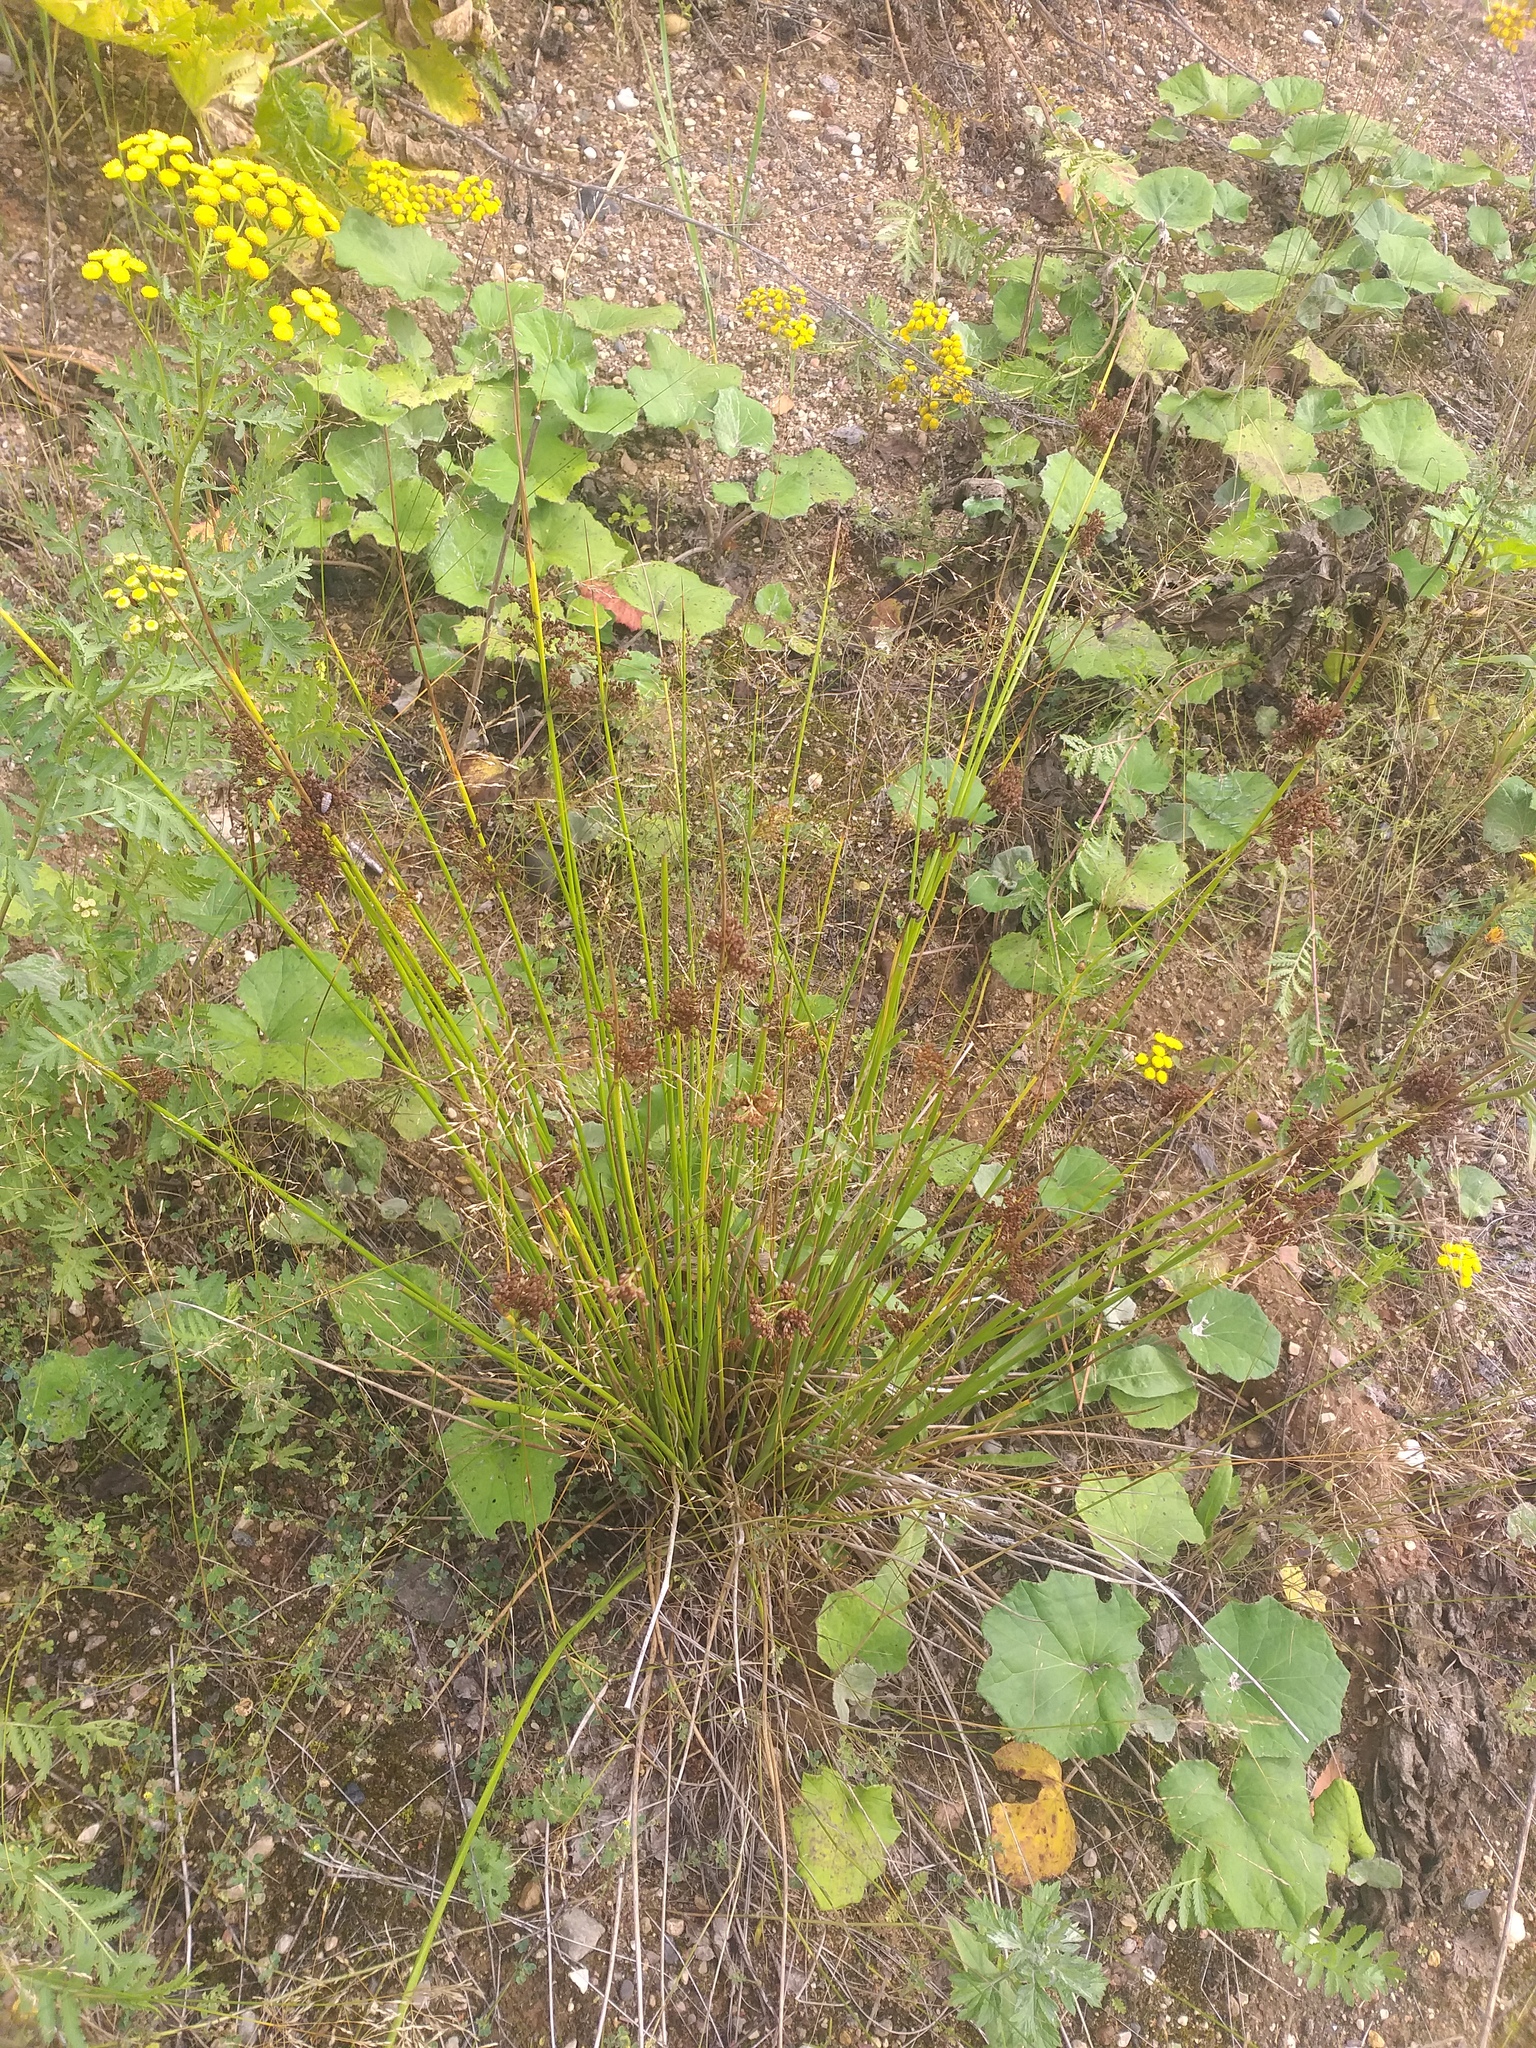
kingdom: Plantae
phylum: Tracheophyta
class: Liliopsida
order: Poales
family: Juncaceae
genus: Juncus
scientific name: Juncus effusus
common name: Soft rush
